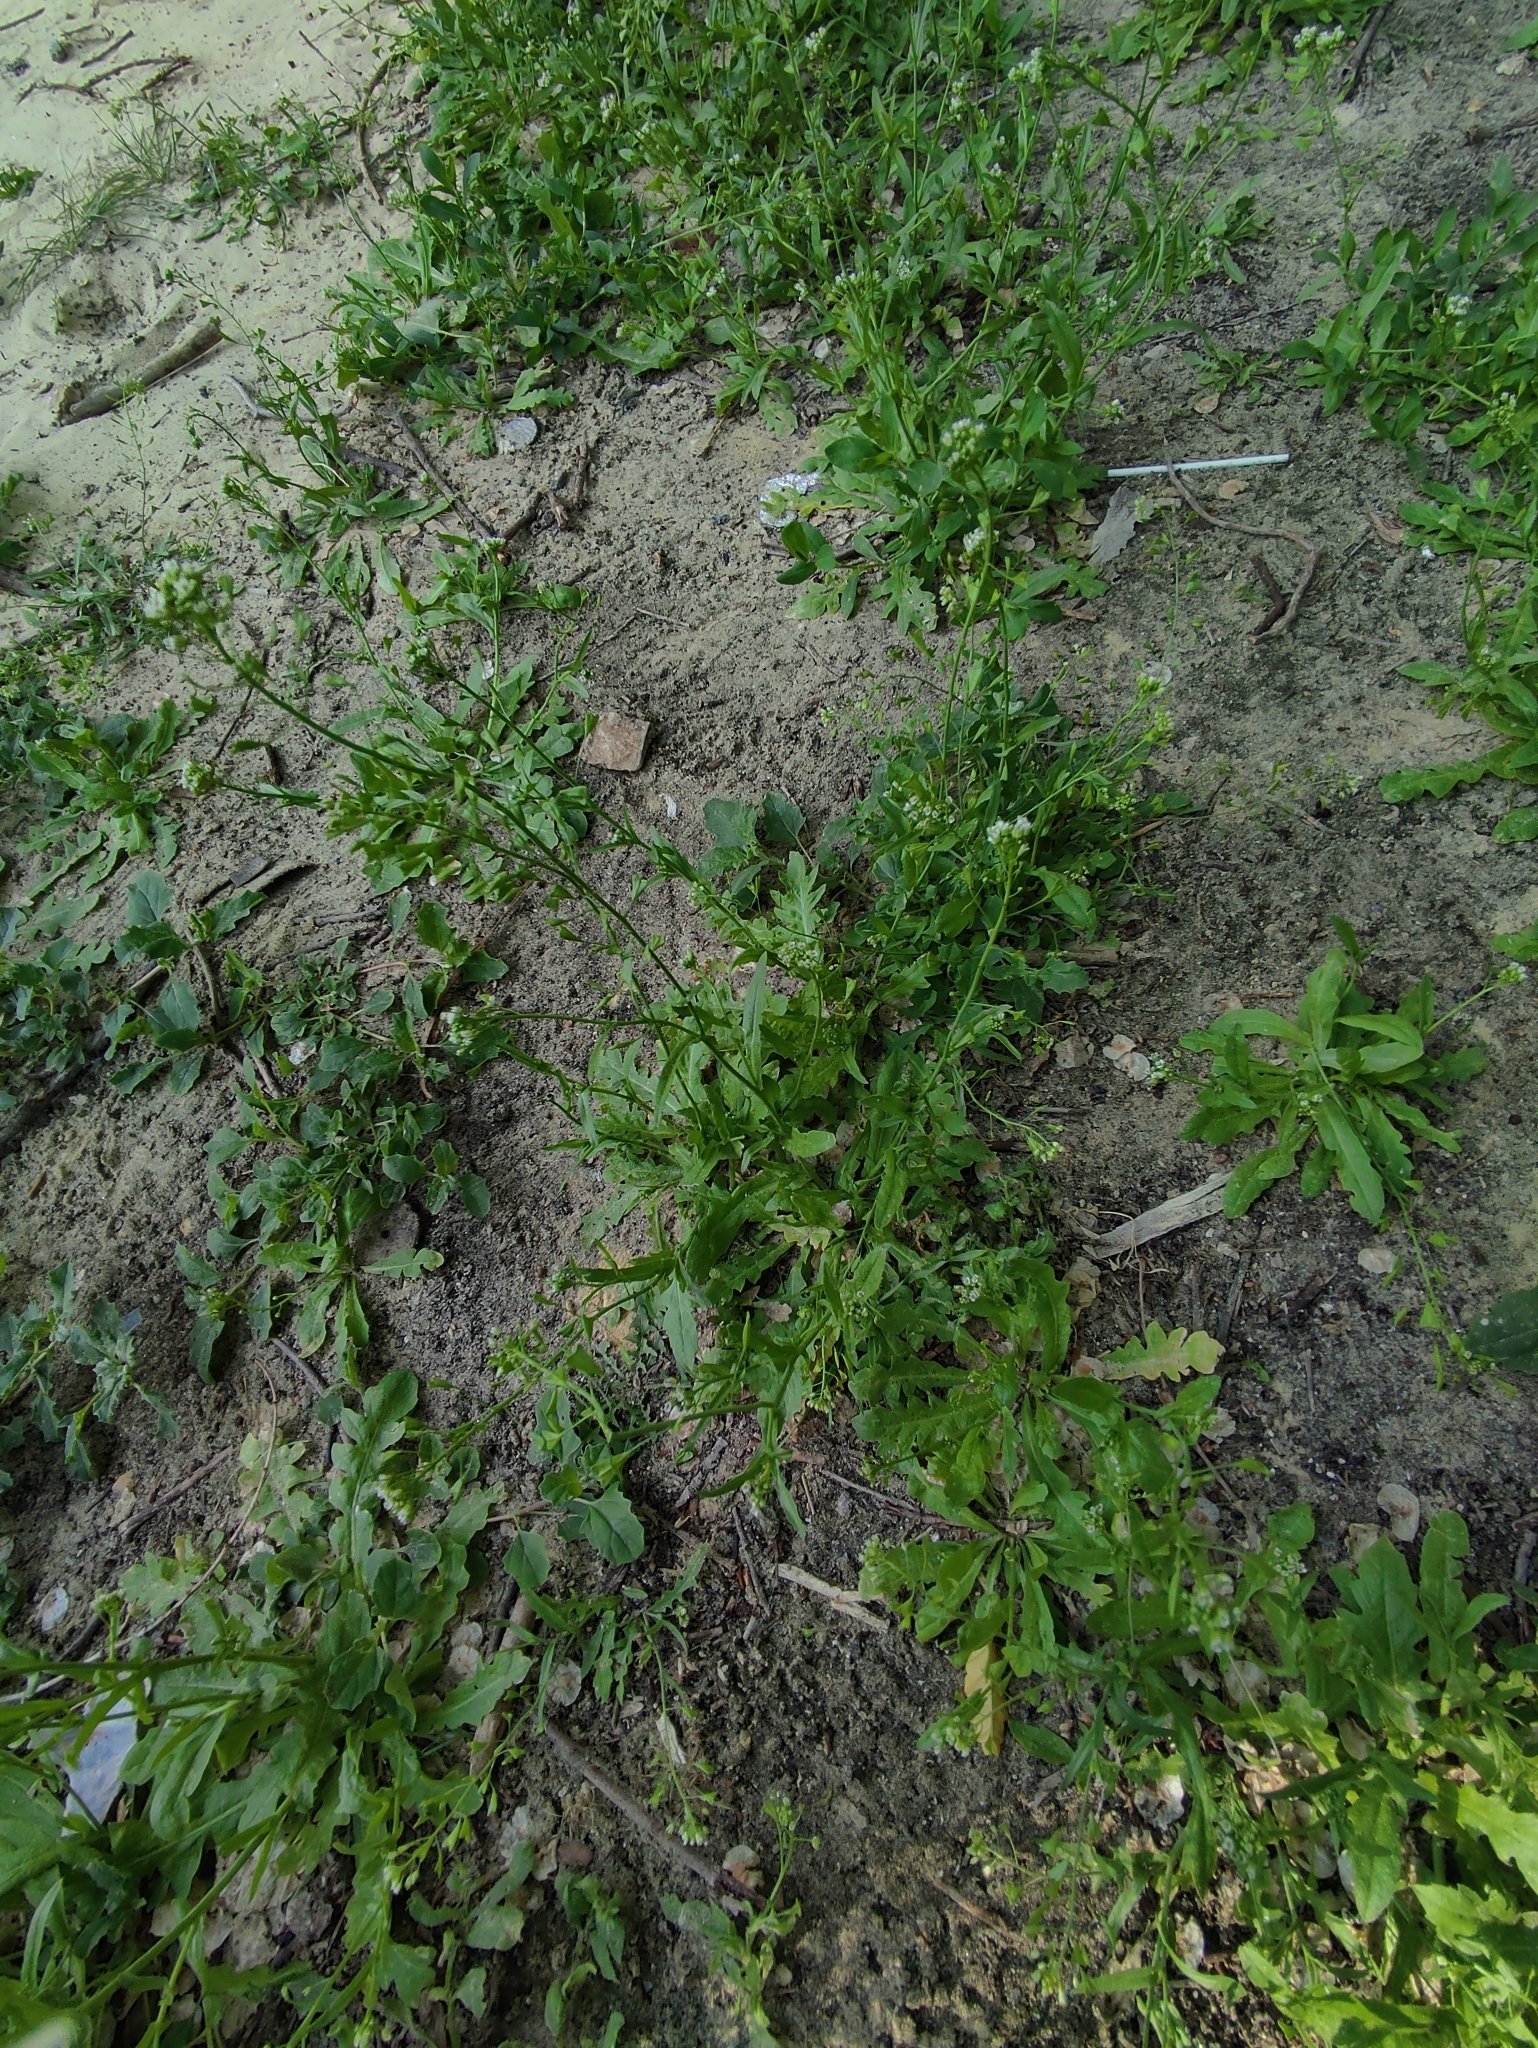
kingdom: Plantae
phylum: Tracheophyta
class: Magnoliopsida
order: Brassicales
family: Brassicaceae
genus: Capsella
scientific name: Capsella bursa-pastoris
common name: Shepherd's purse
